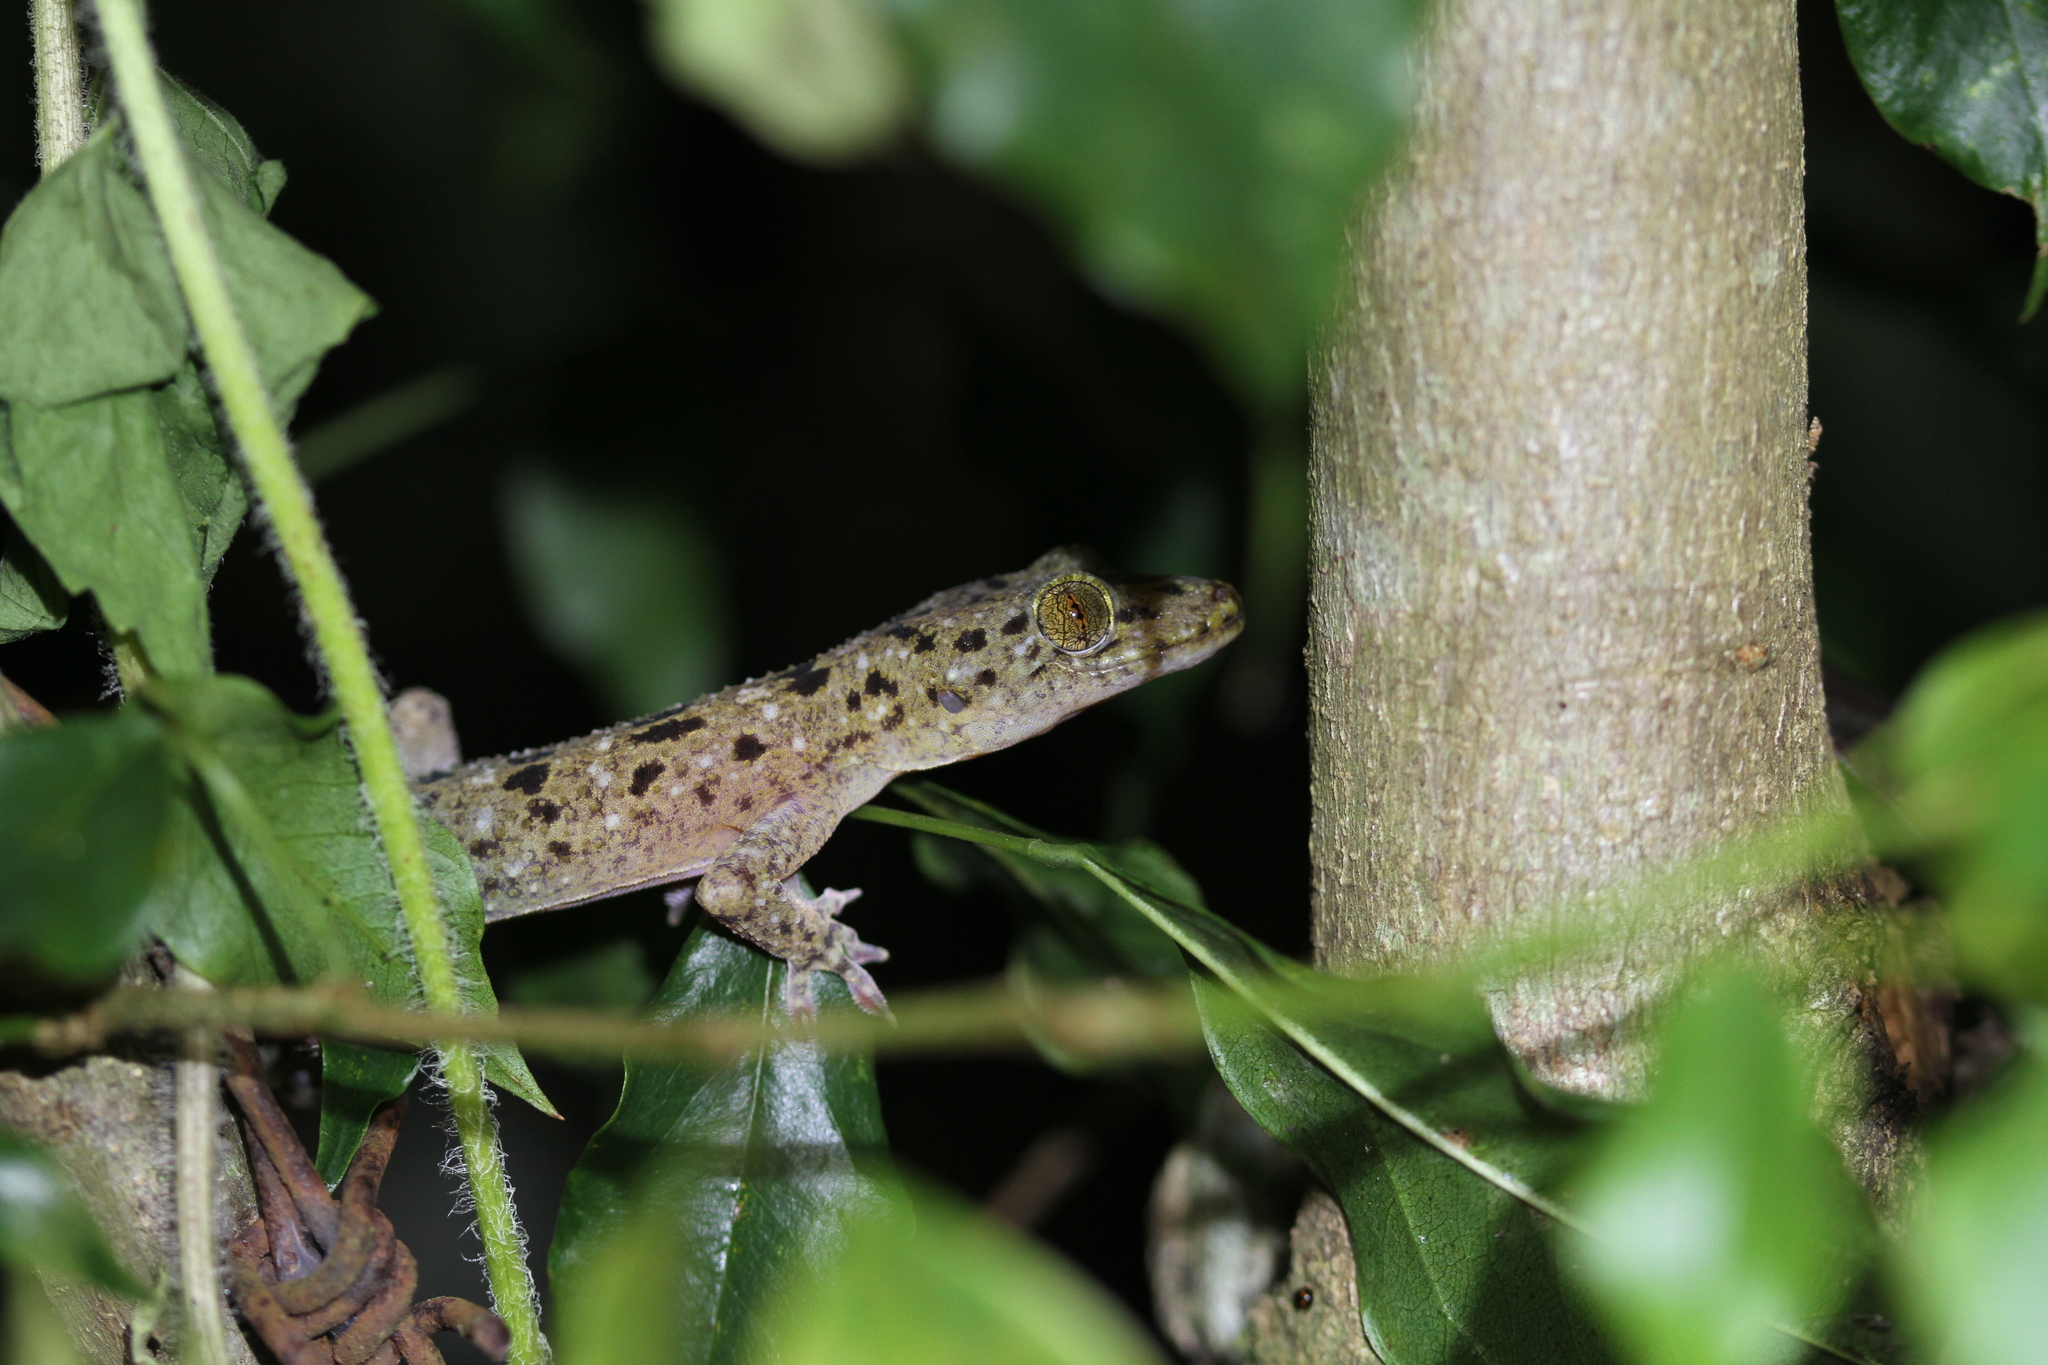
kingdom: Animalia
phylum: Chordata
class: Squamata
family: Gekkonidae
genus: Gekko
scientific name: Gekko monarchus
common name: Spotted house gecko
